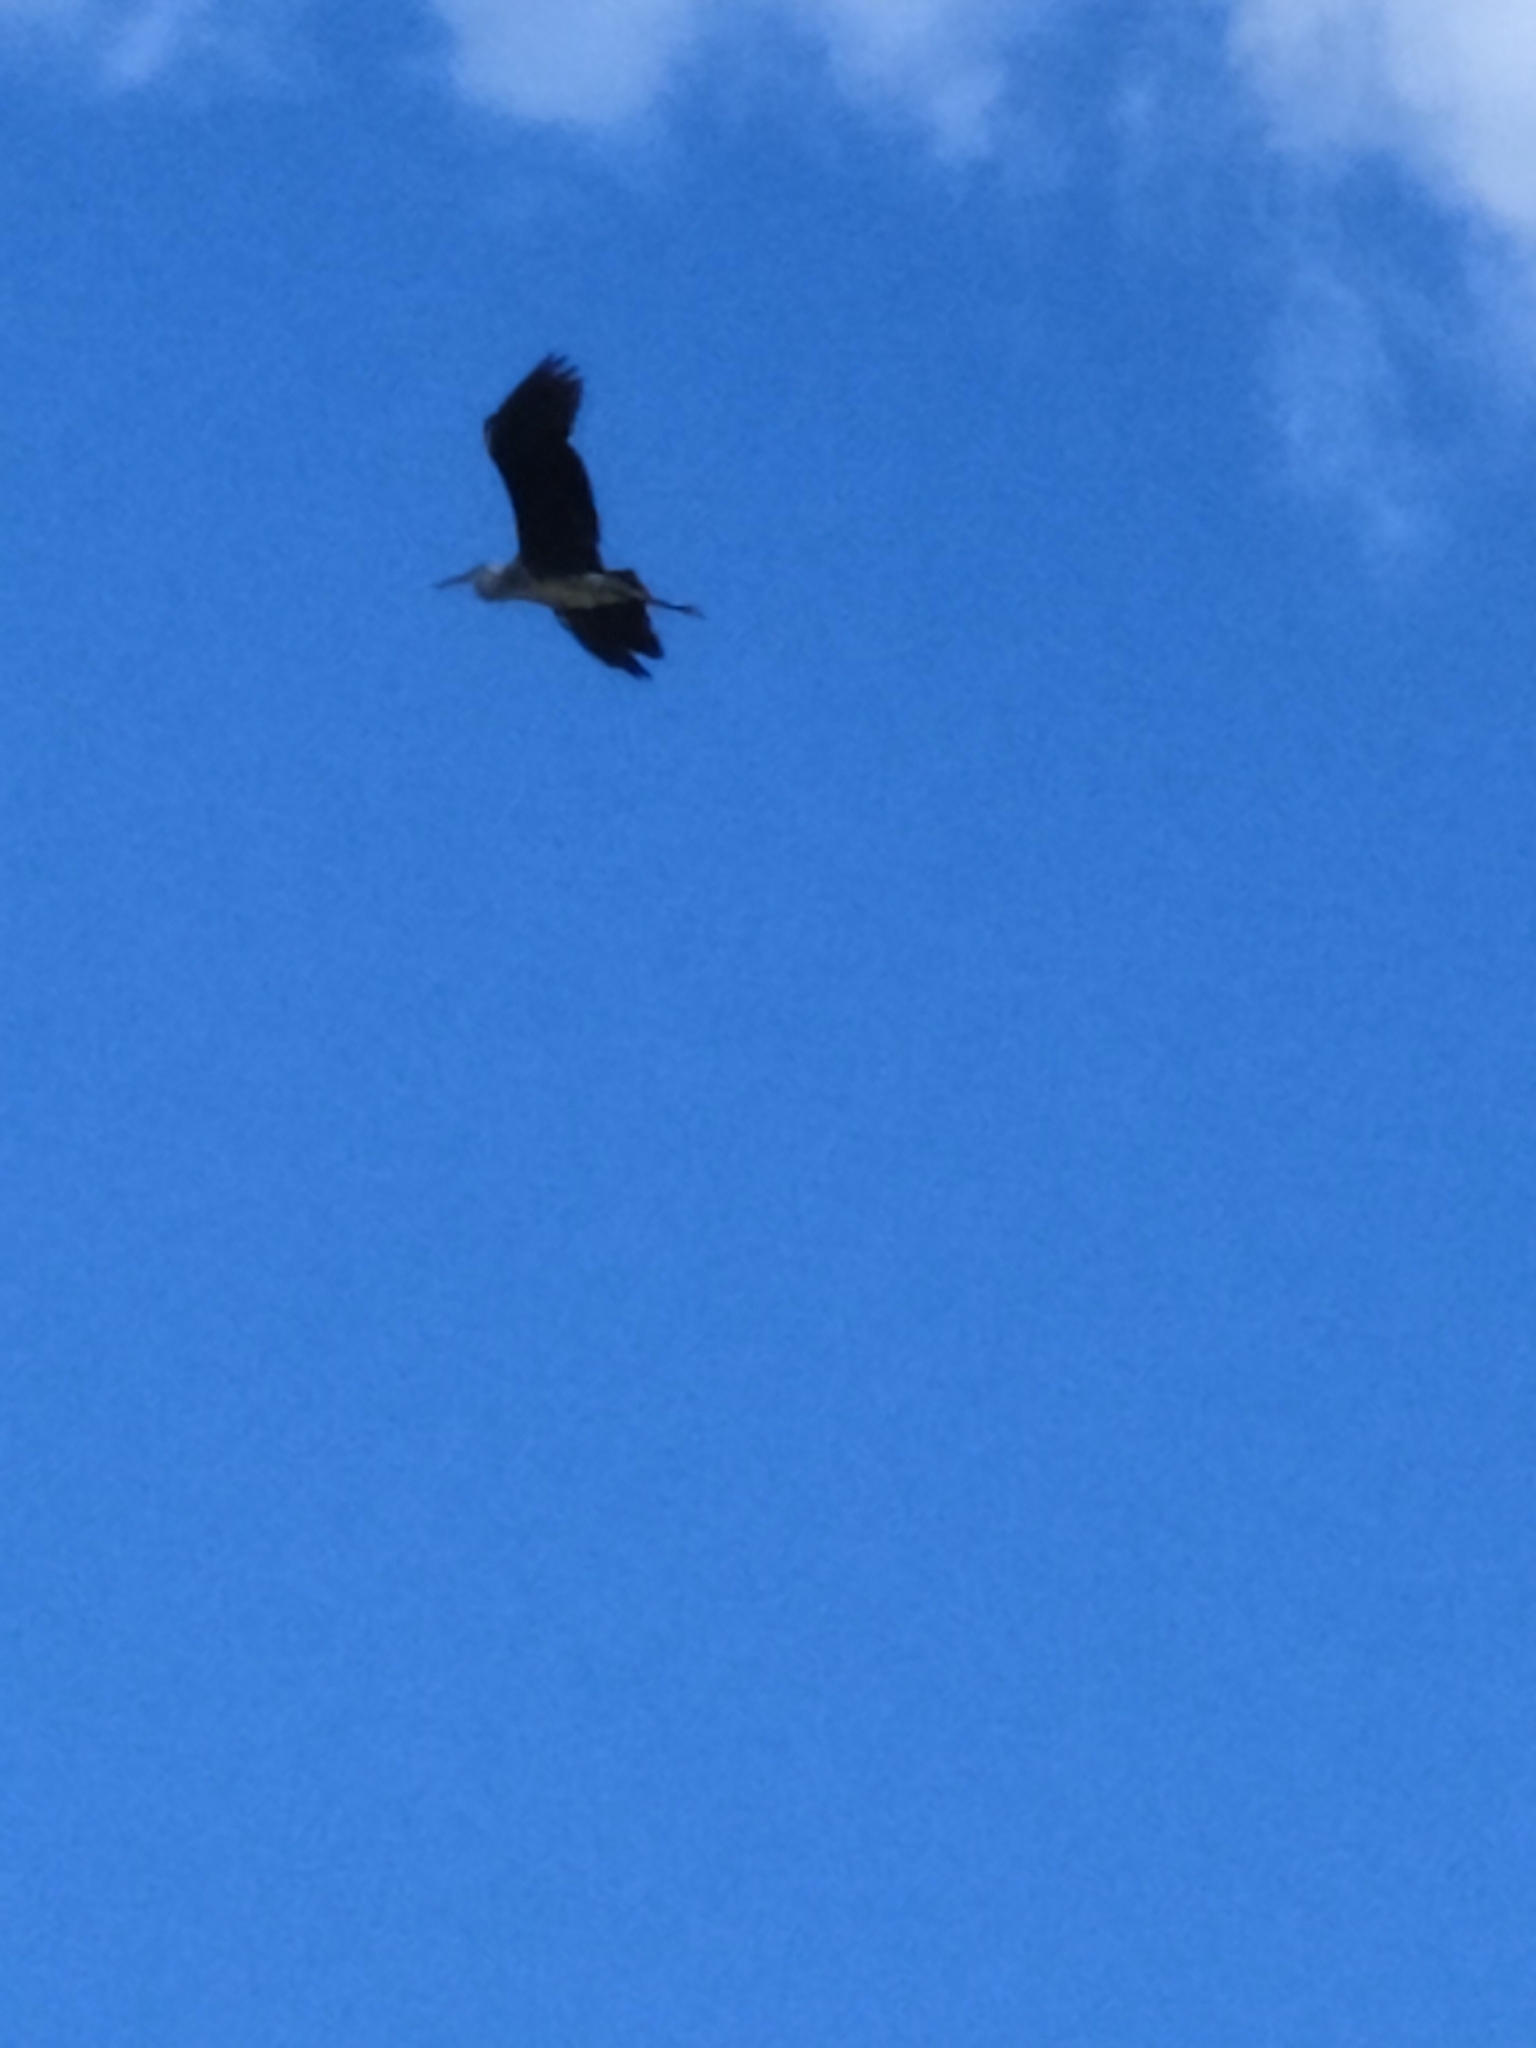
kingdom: Animalia
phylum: Chordata
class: Aves
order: Pelecaniformes
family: Ardeidae
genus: Ardea
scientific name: Ardea herodias
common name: Great blue heron
